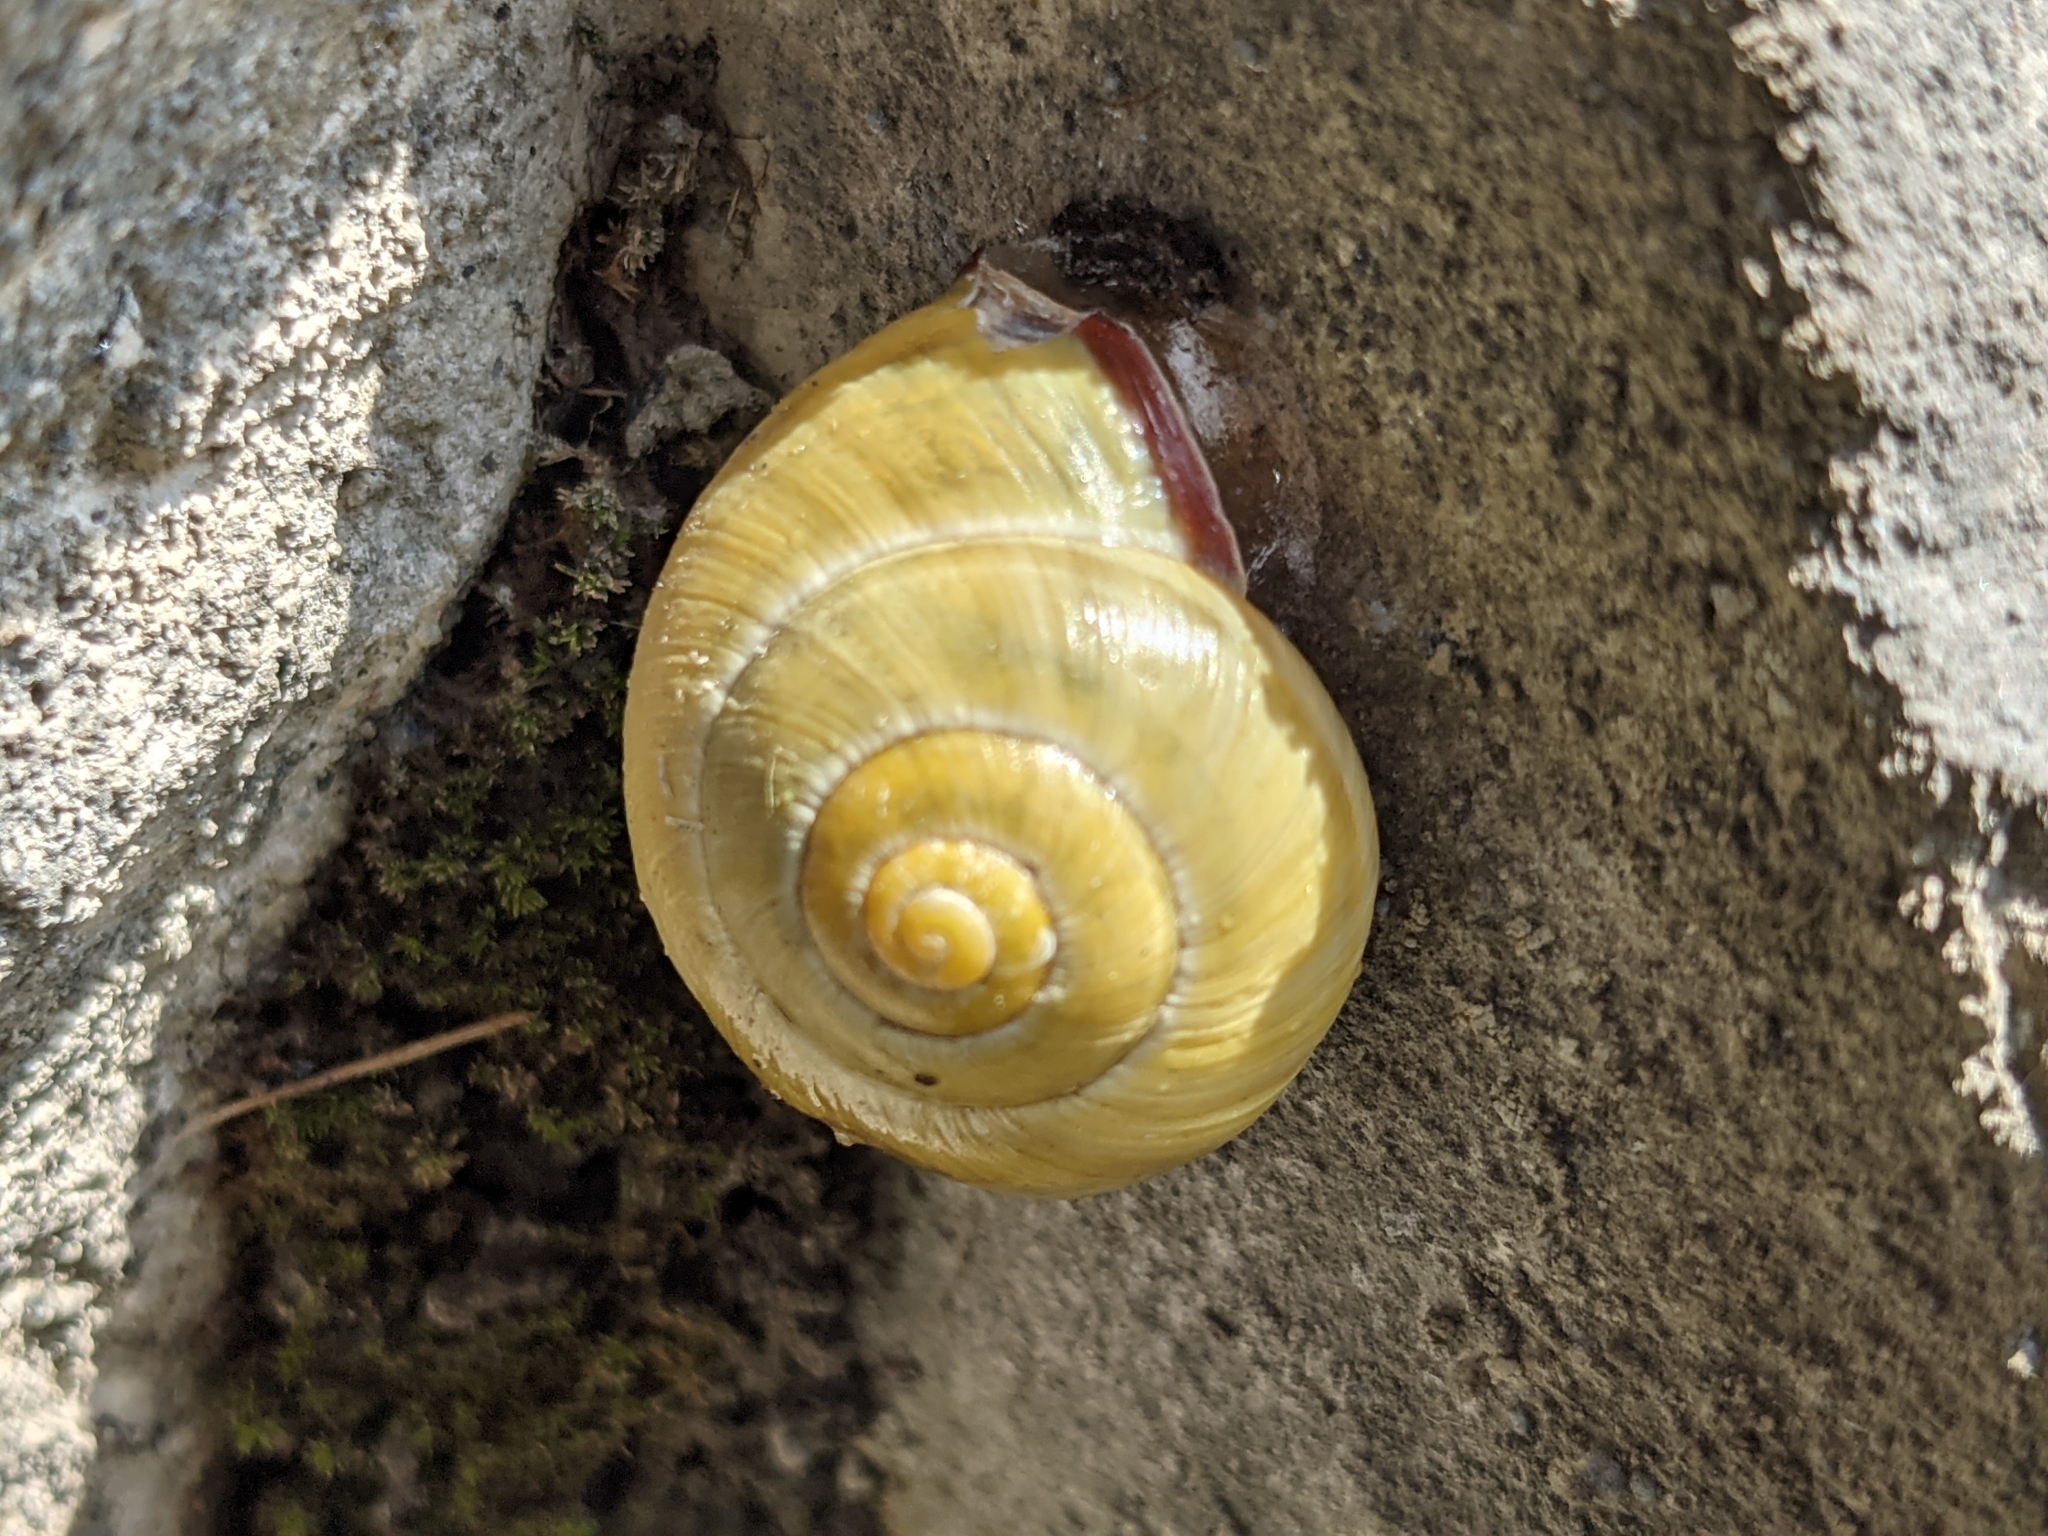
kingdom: Animalia
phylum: Mollusca
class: Gastropoda
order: Stylommatophora
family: Helicidae
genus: Cepaea
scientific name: Cepaea nemoralis
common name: Grovesnail
